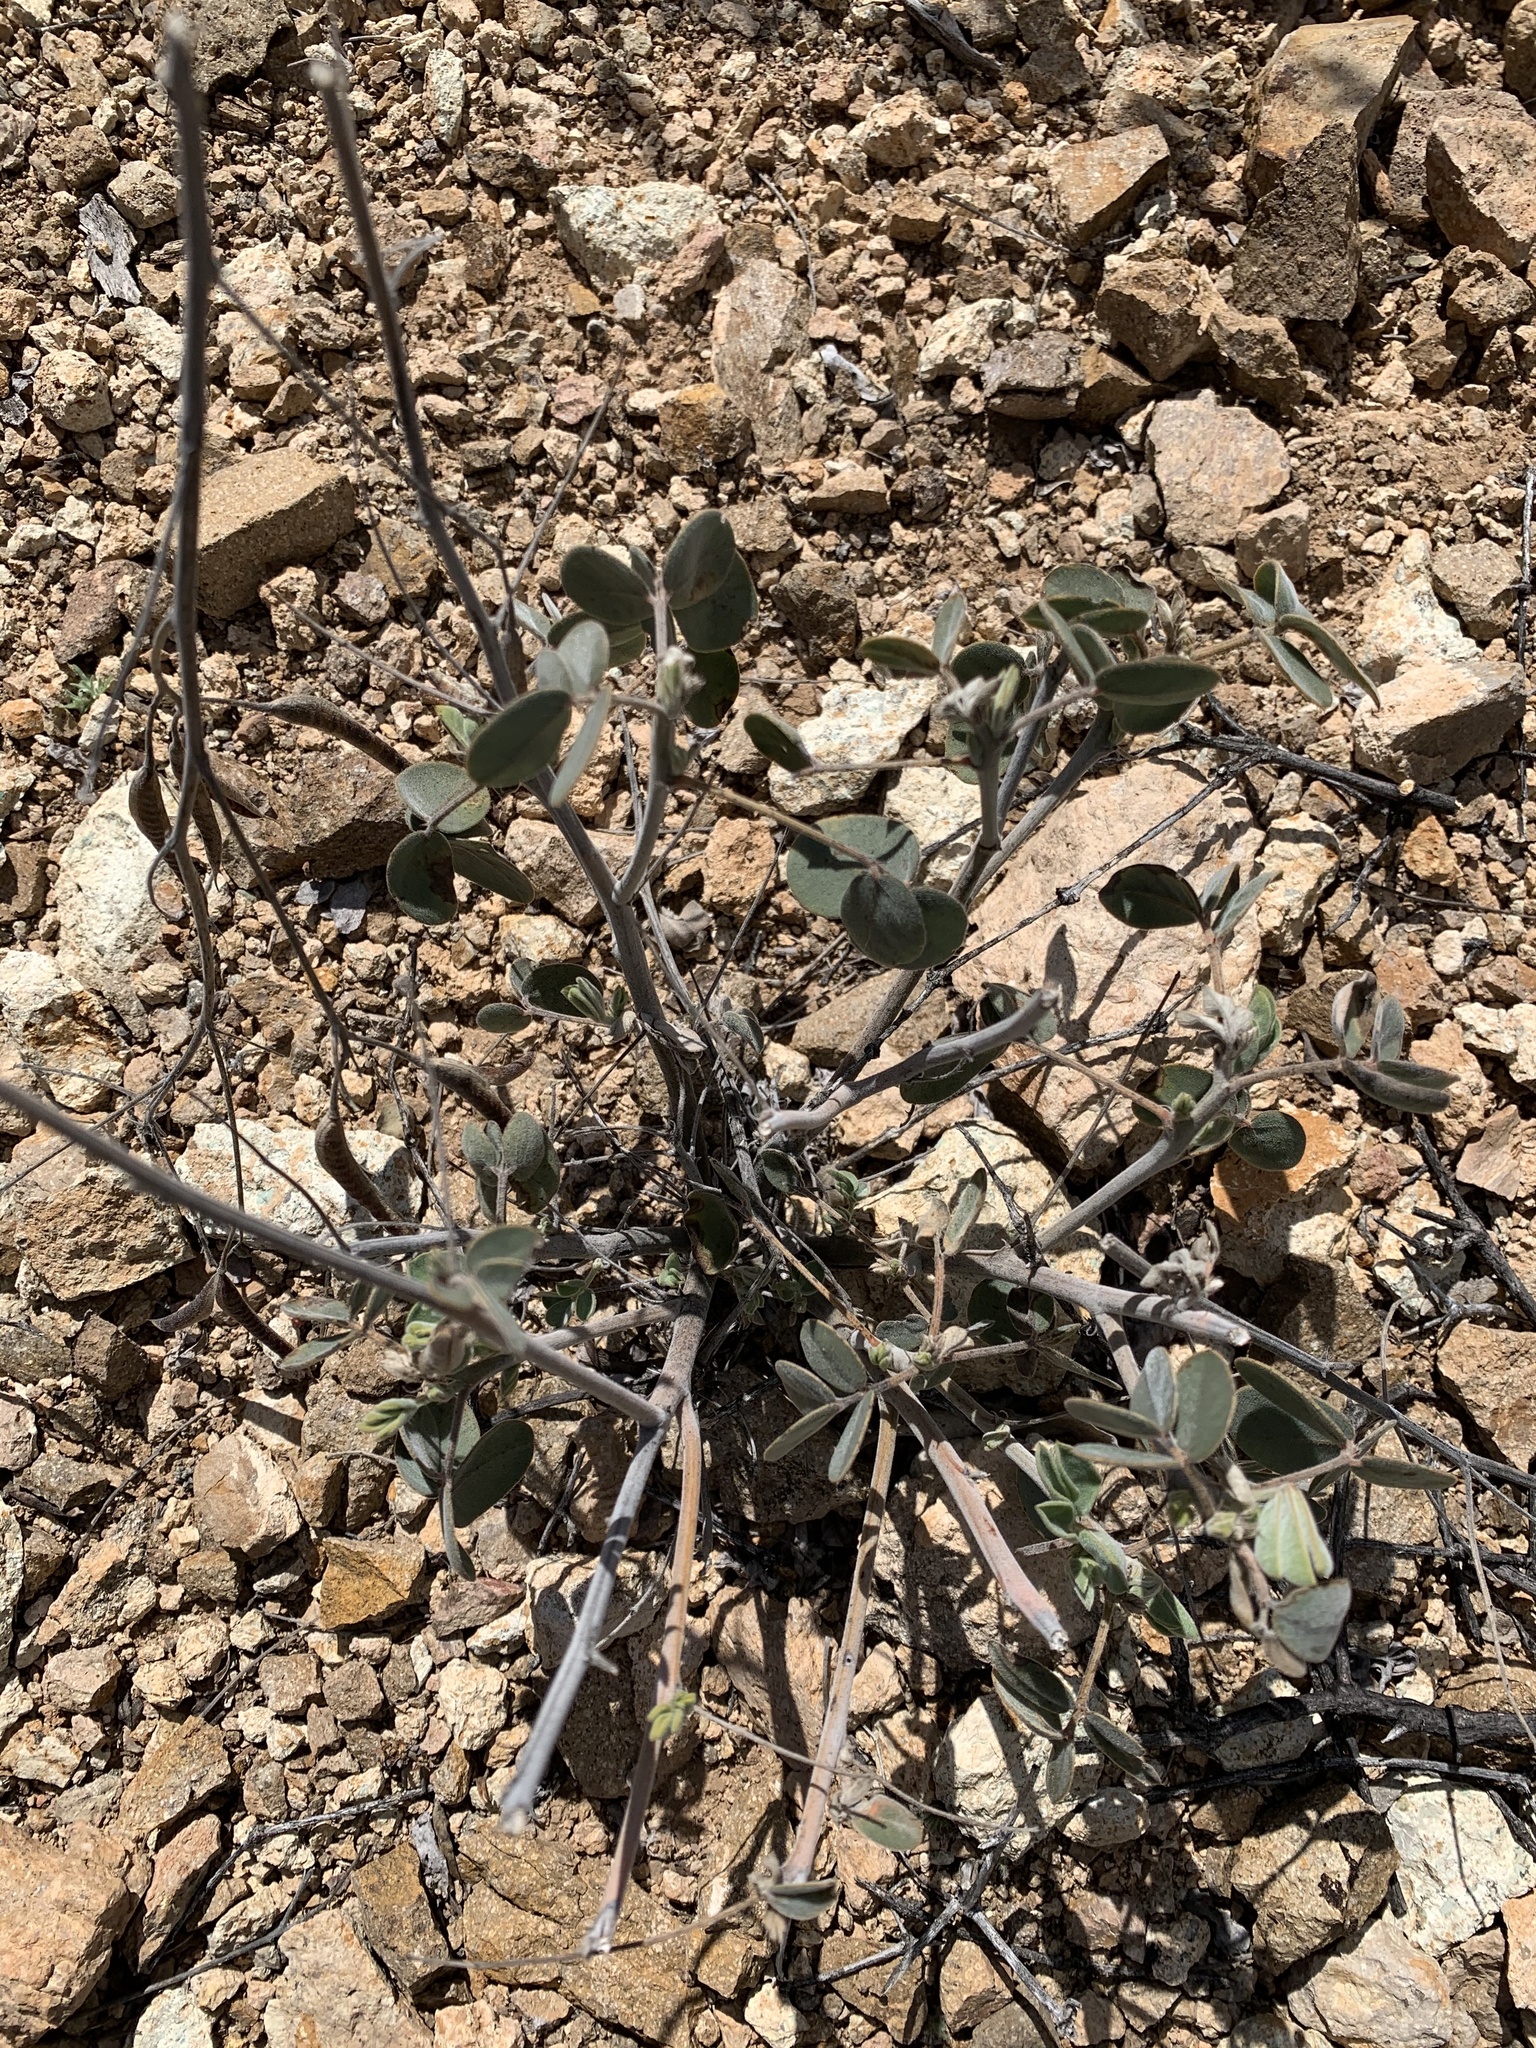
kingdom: Plantae
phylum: Tracheophyta
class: Magnoliopsida
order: Fabales
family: Fabaceae
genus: Senna
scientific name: Senna covesii
